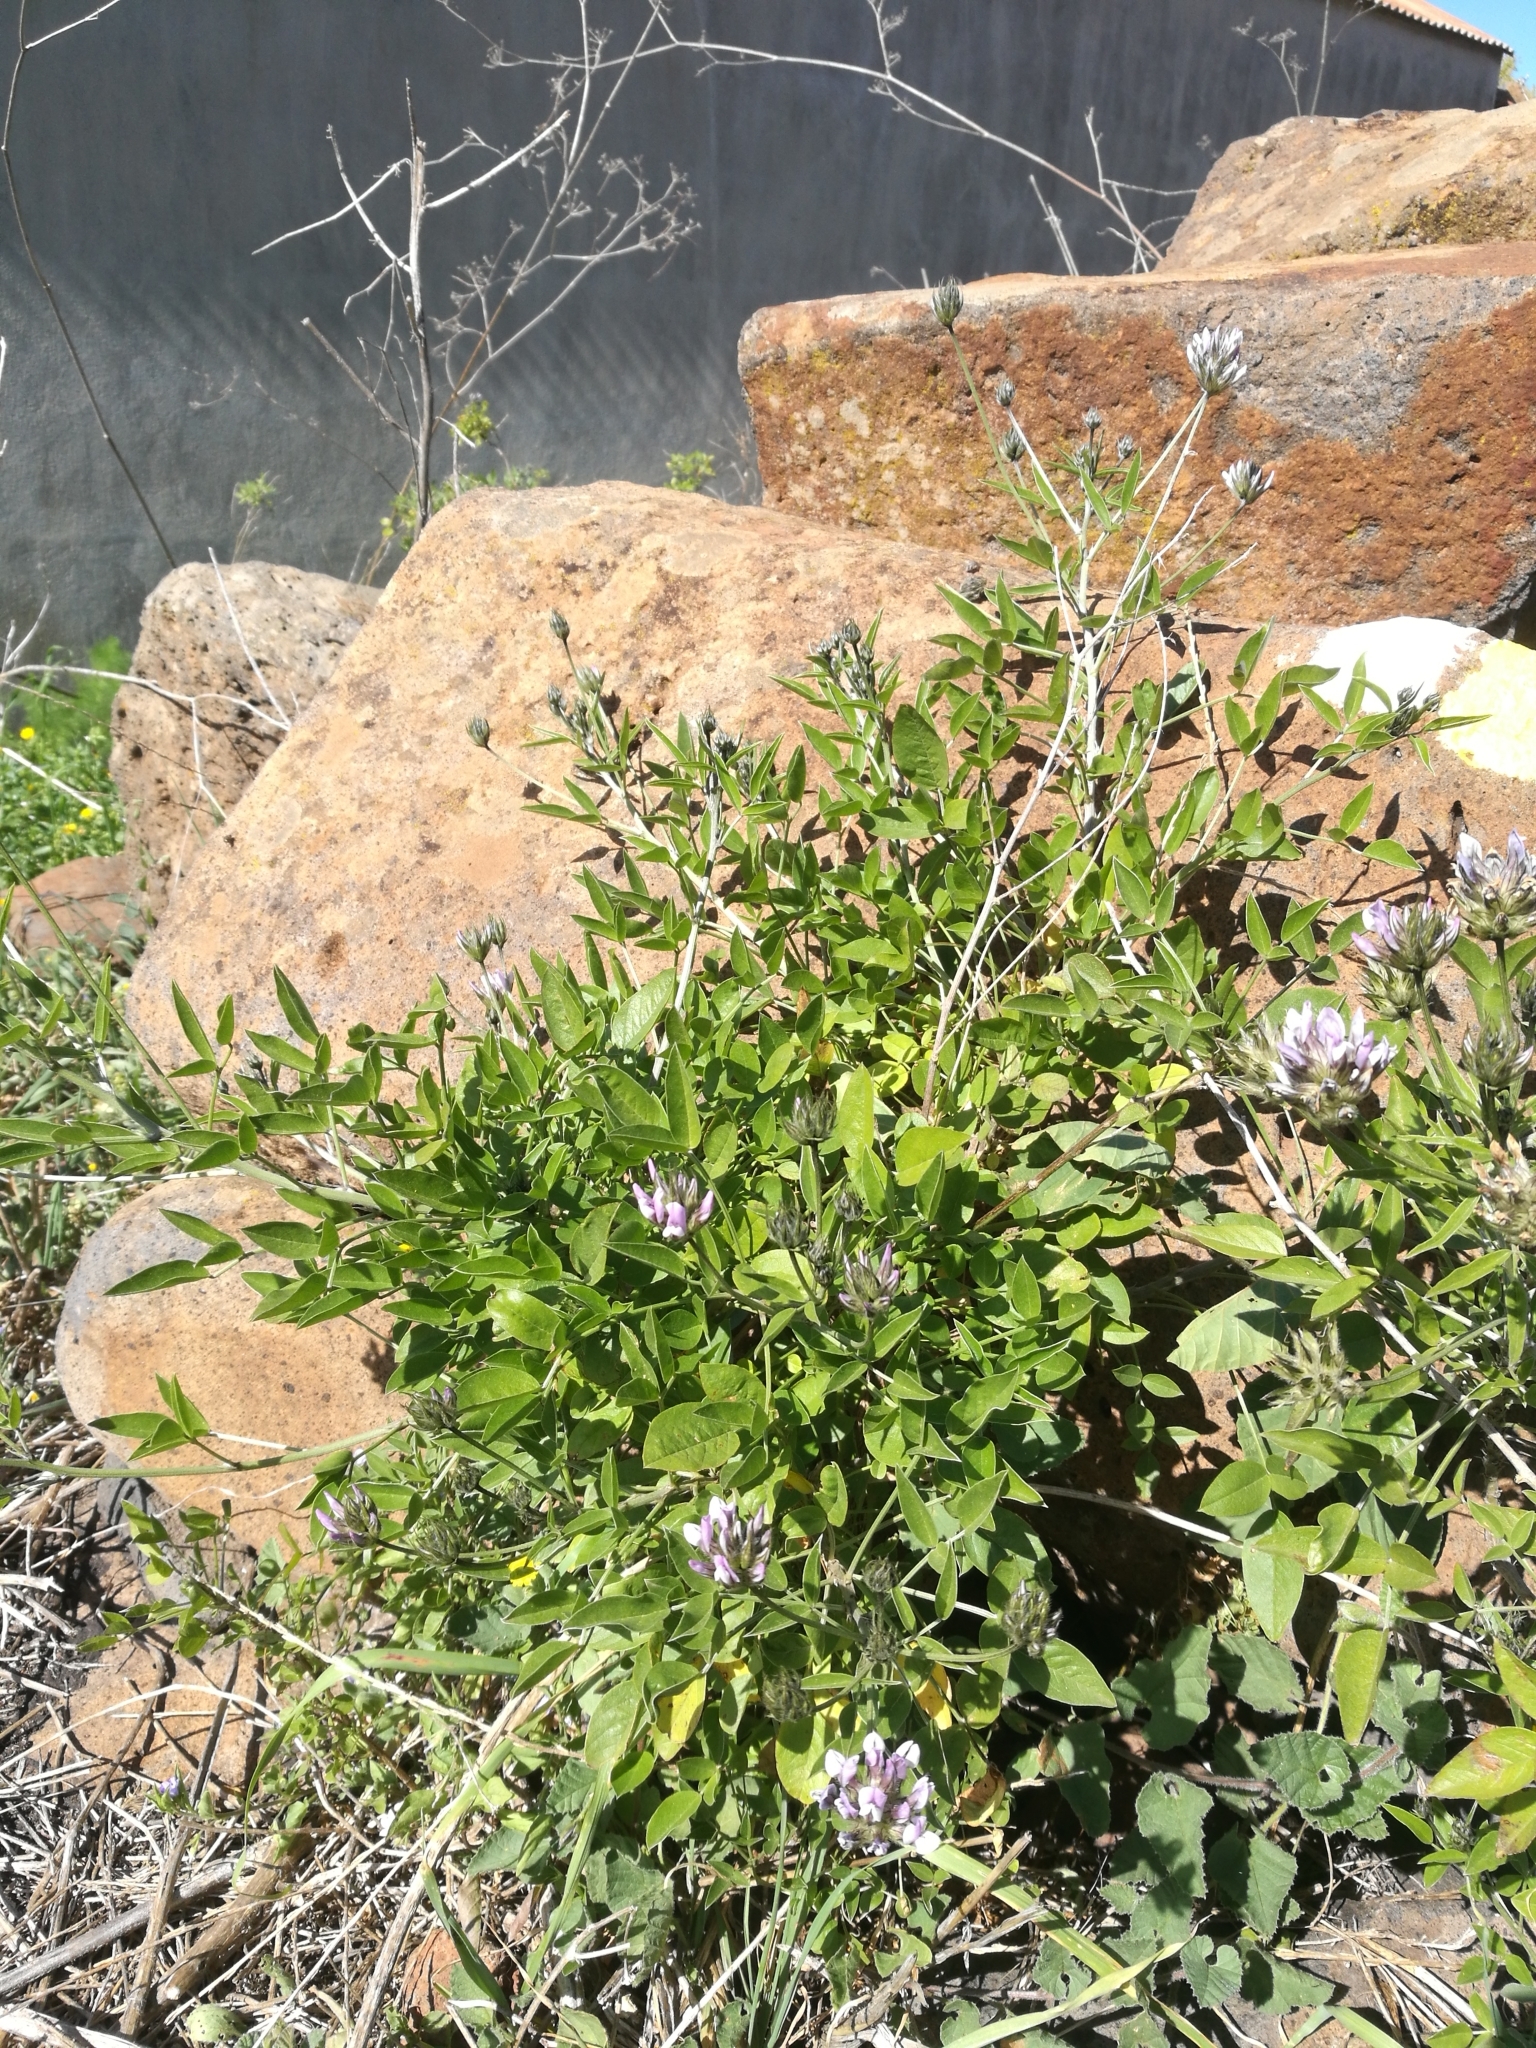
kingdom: Plantae
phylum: Tracheophyta
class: Magnoliopsida
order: Fabales
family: Fabaceae
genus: Bituminaria
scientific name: Bituminaria bituminosa
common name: Arabian pea
